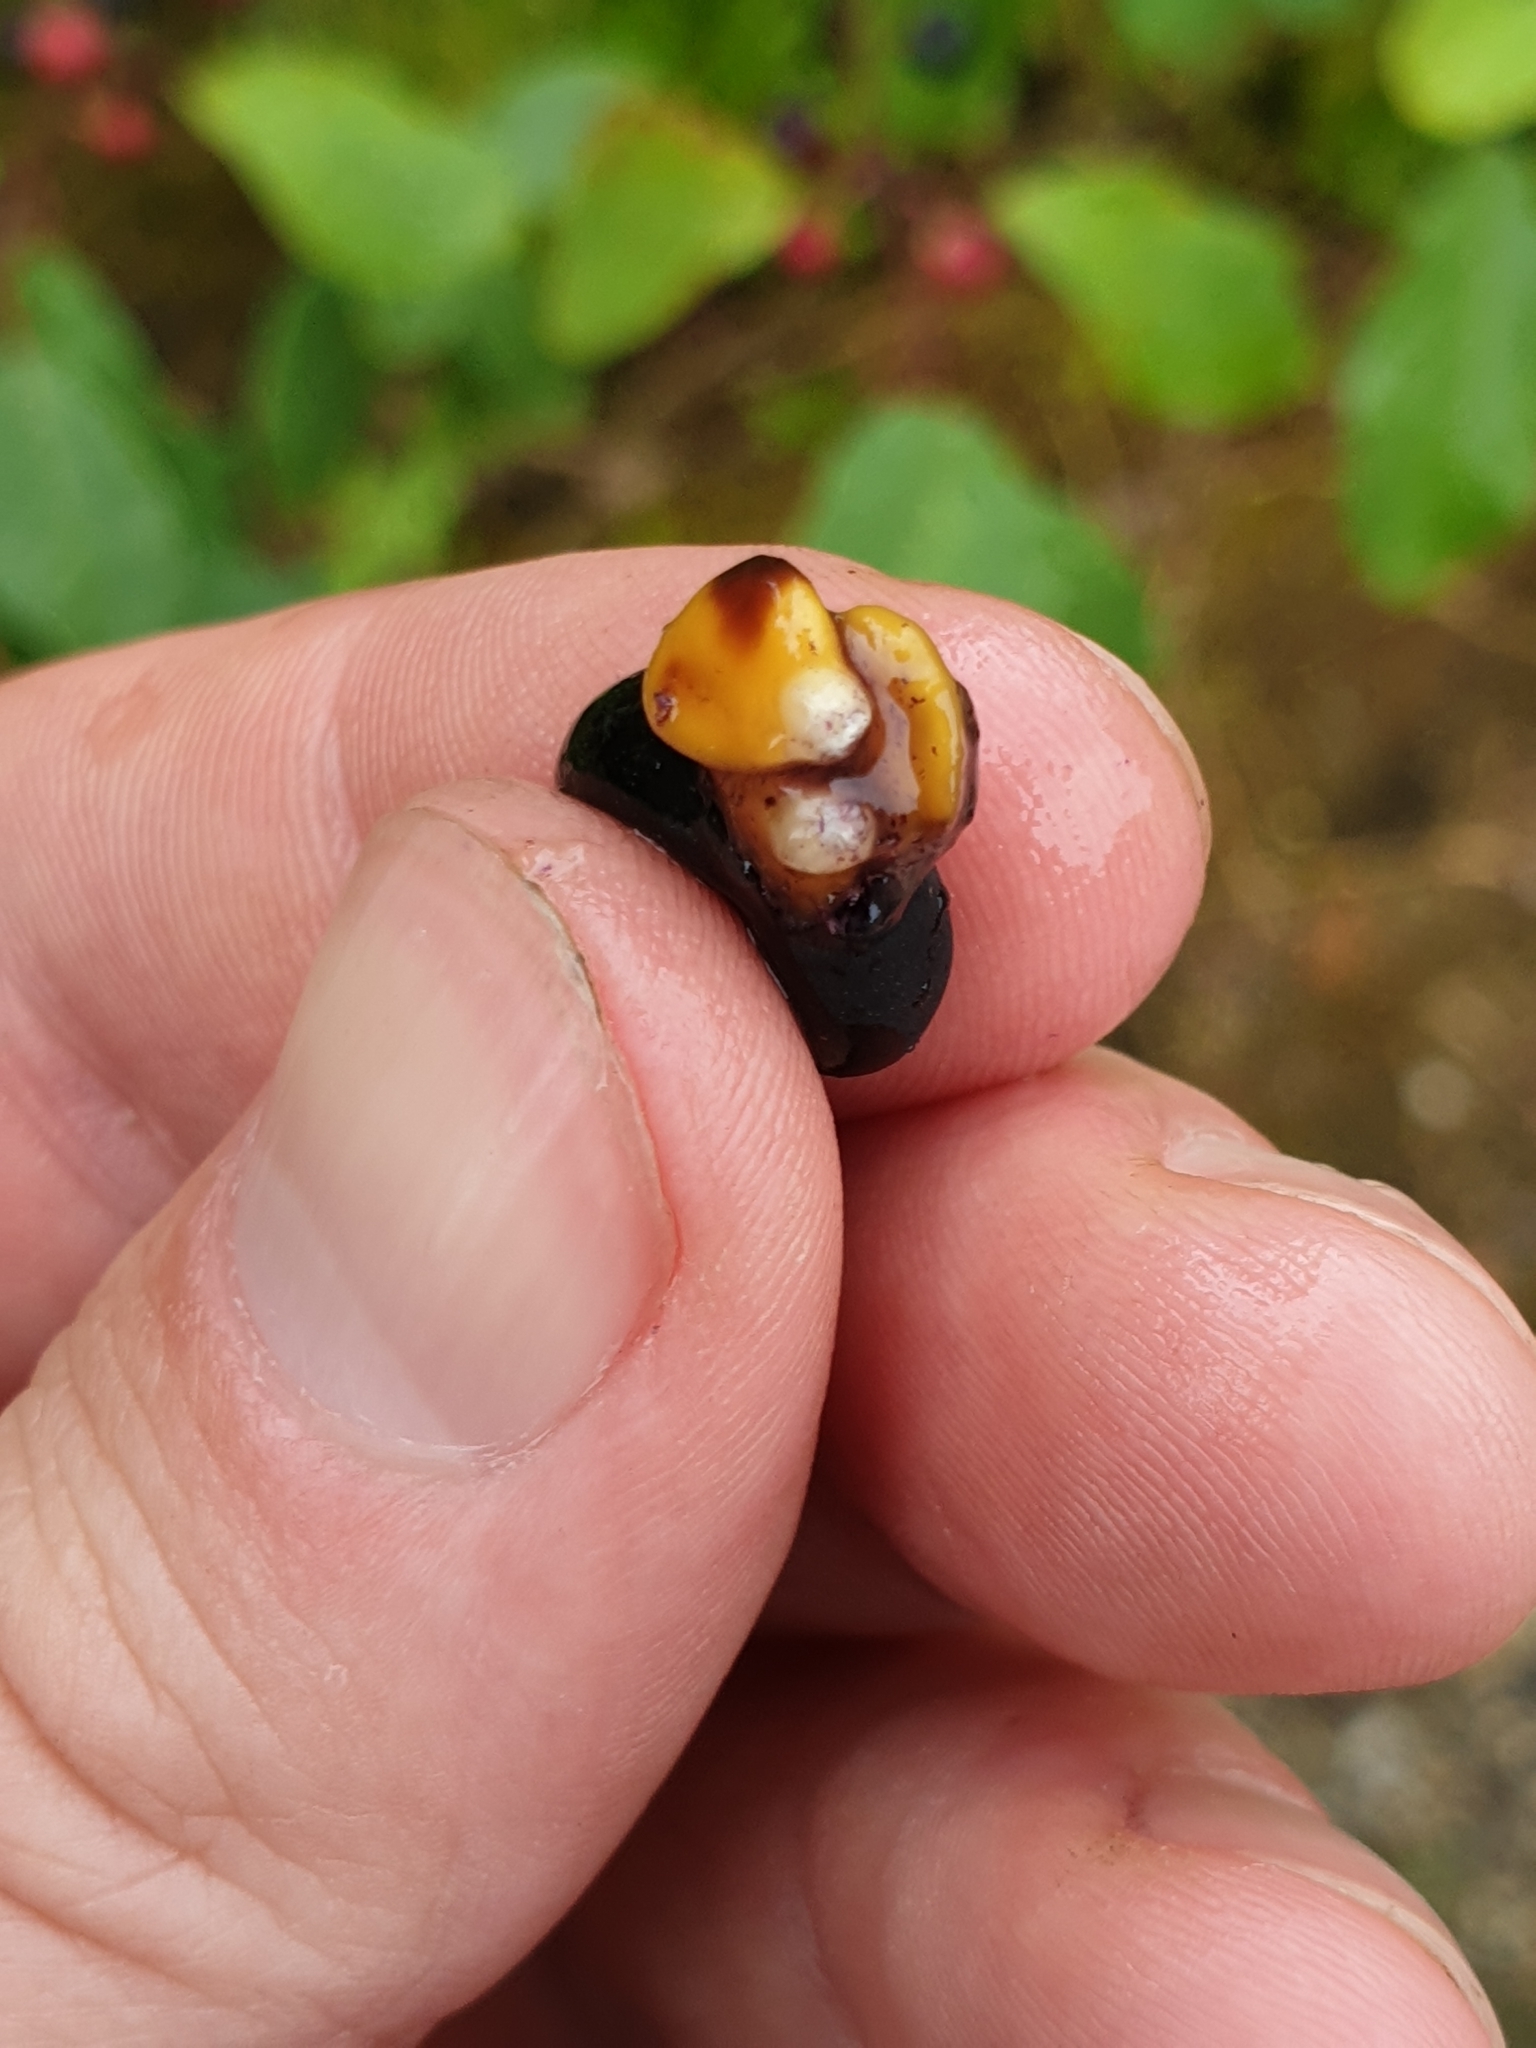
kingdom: Plantae
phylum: Tracheophyta
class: Magnoliopsida
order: Rosales
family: Rhamnaceae
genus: Frangula
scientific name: Frangula alnus
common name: Alder buckthorn
